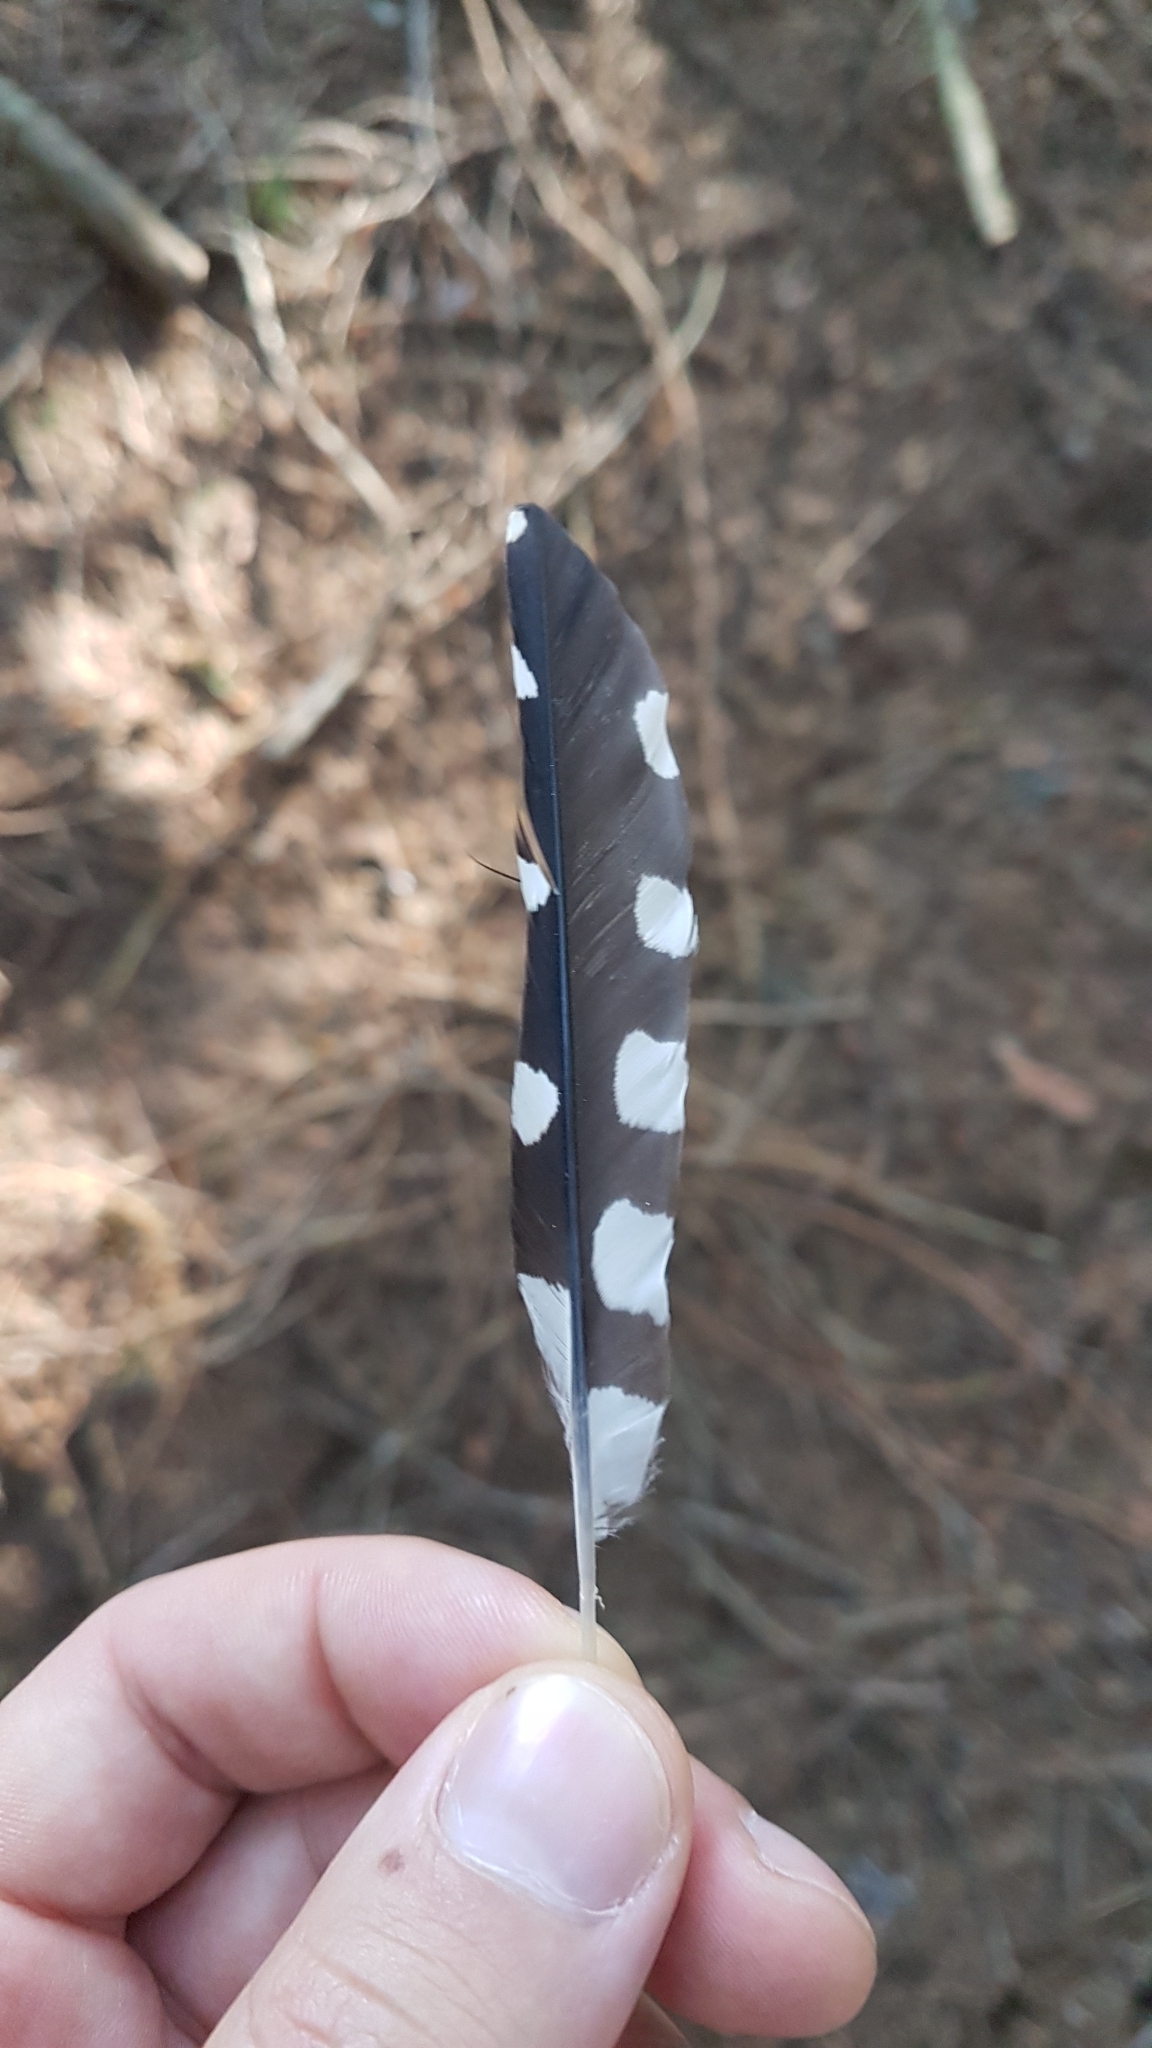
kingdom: Animalia
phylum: Chordata
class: Aves
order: Piciformes
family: Picidae
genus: Dendrocopos
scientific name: Dendrocopos major
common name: Great spotted woodpecker
